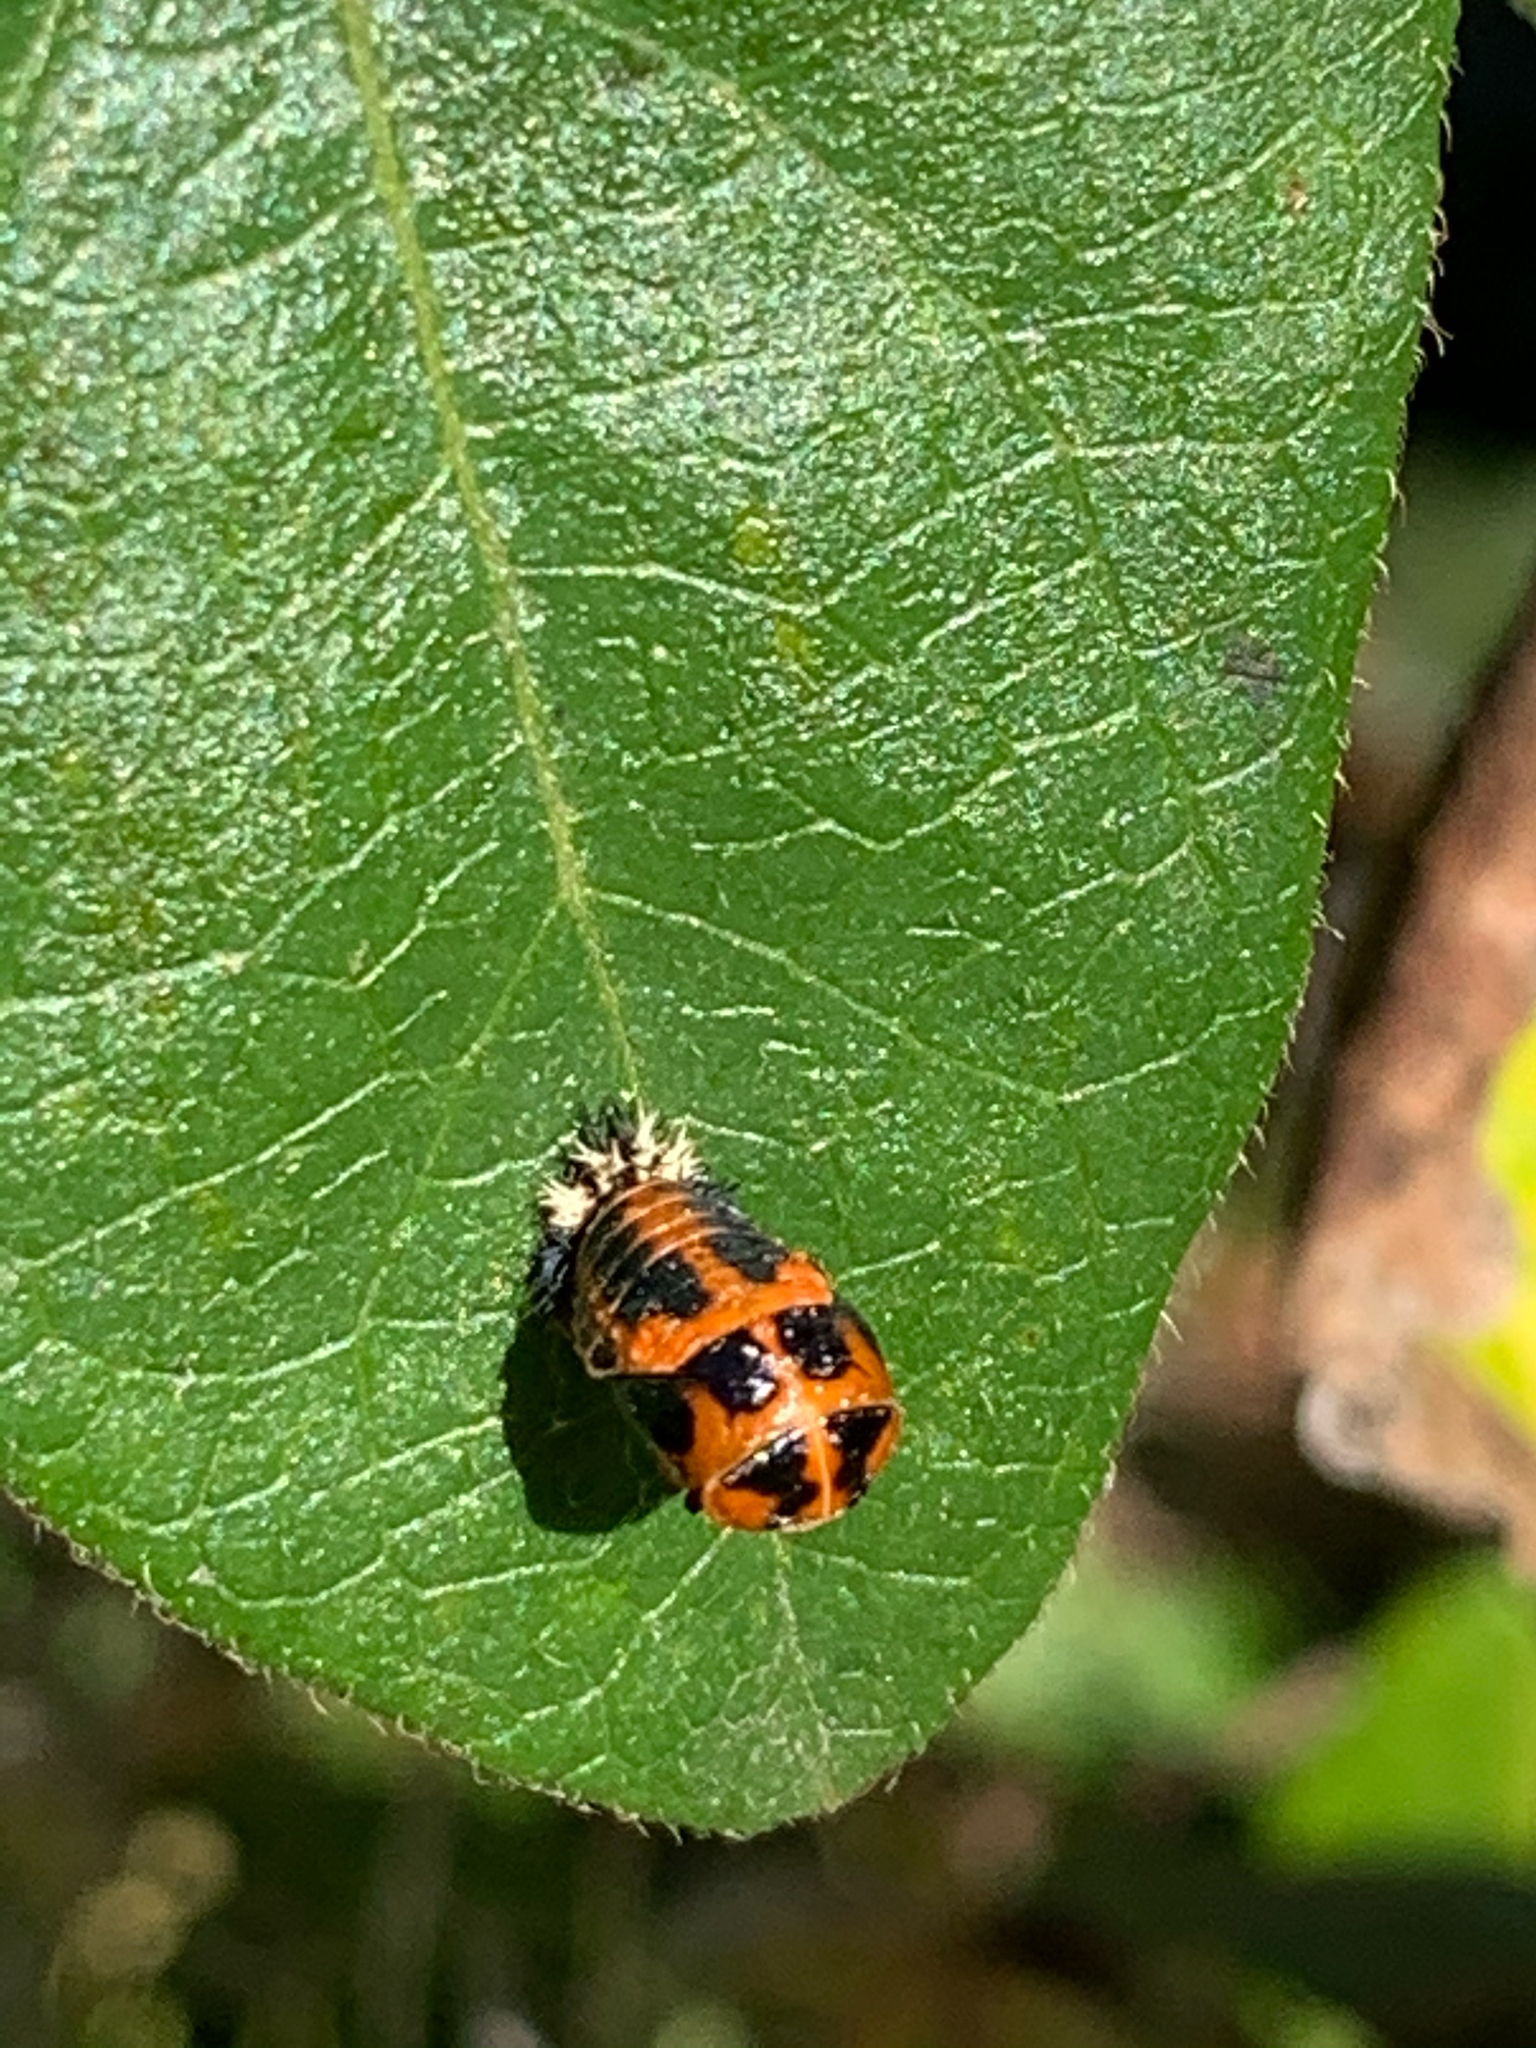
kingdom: Animalia
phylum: Arthropoda
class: Insecta
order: Coleoptera
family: Coccinellidae
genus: Harmonia
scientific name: Harmonia axyridis
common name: Harlequin ladybird
